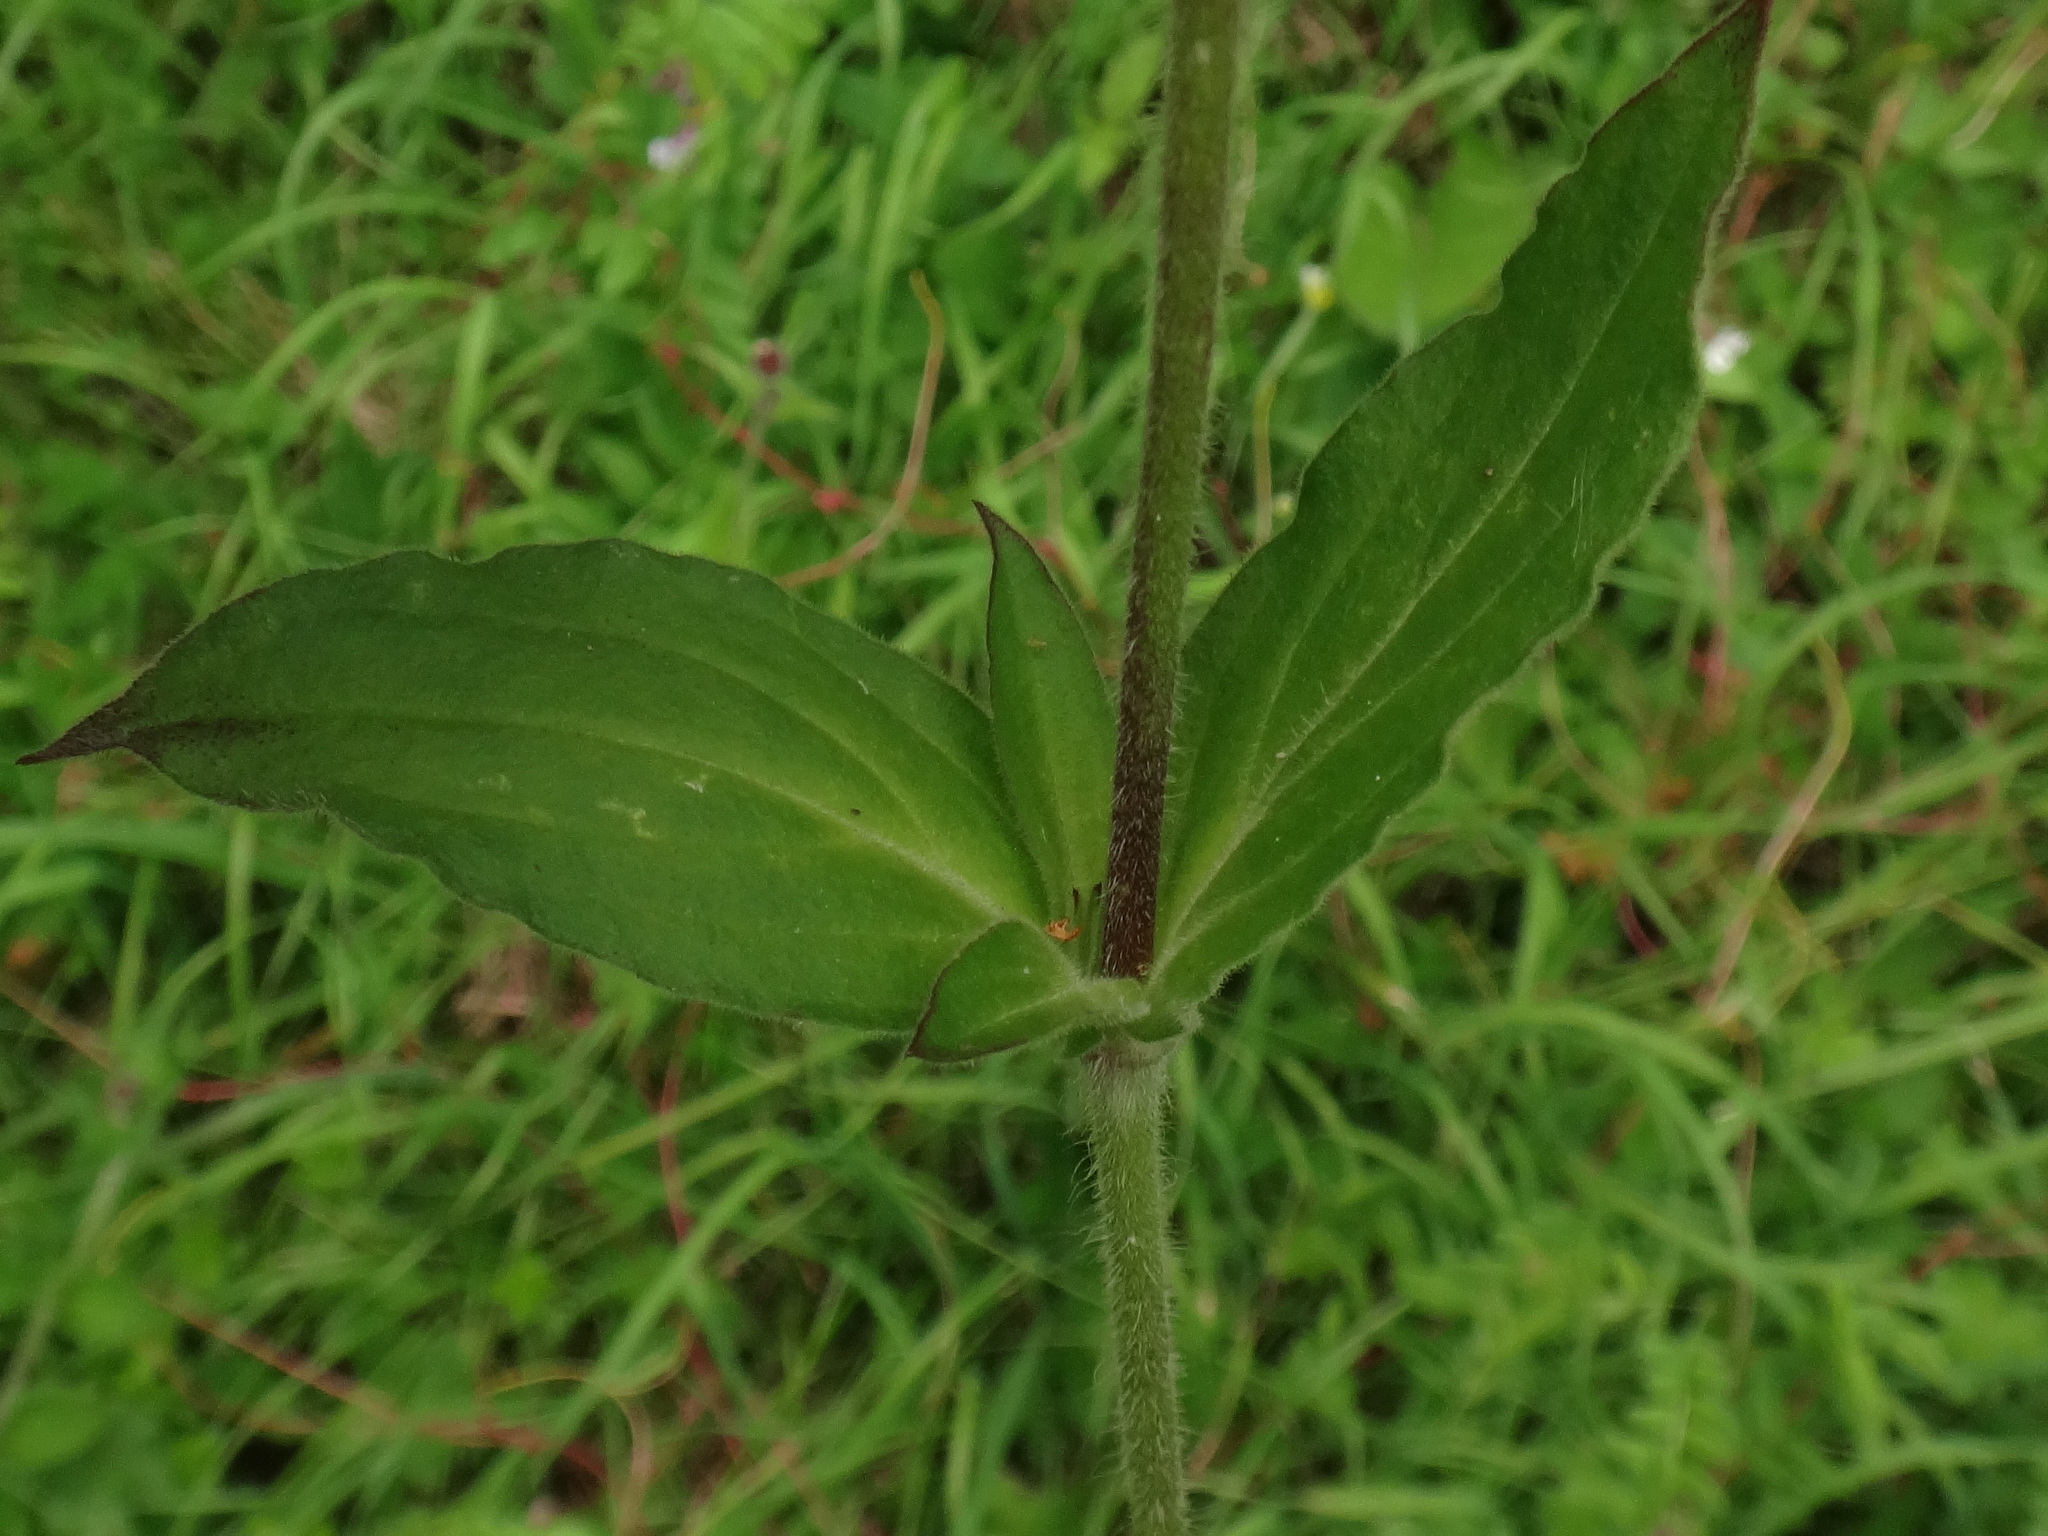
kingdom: Plantae
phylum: Tracheophyta
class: Magnoliopsida
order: Caryophyllales
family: Caryophyllaceae
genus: Silene
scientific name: Silene dioica
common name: Red campion
